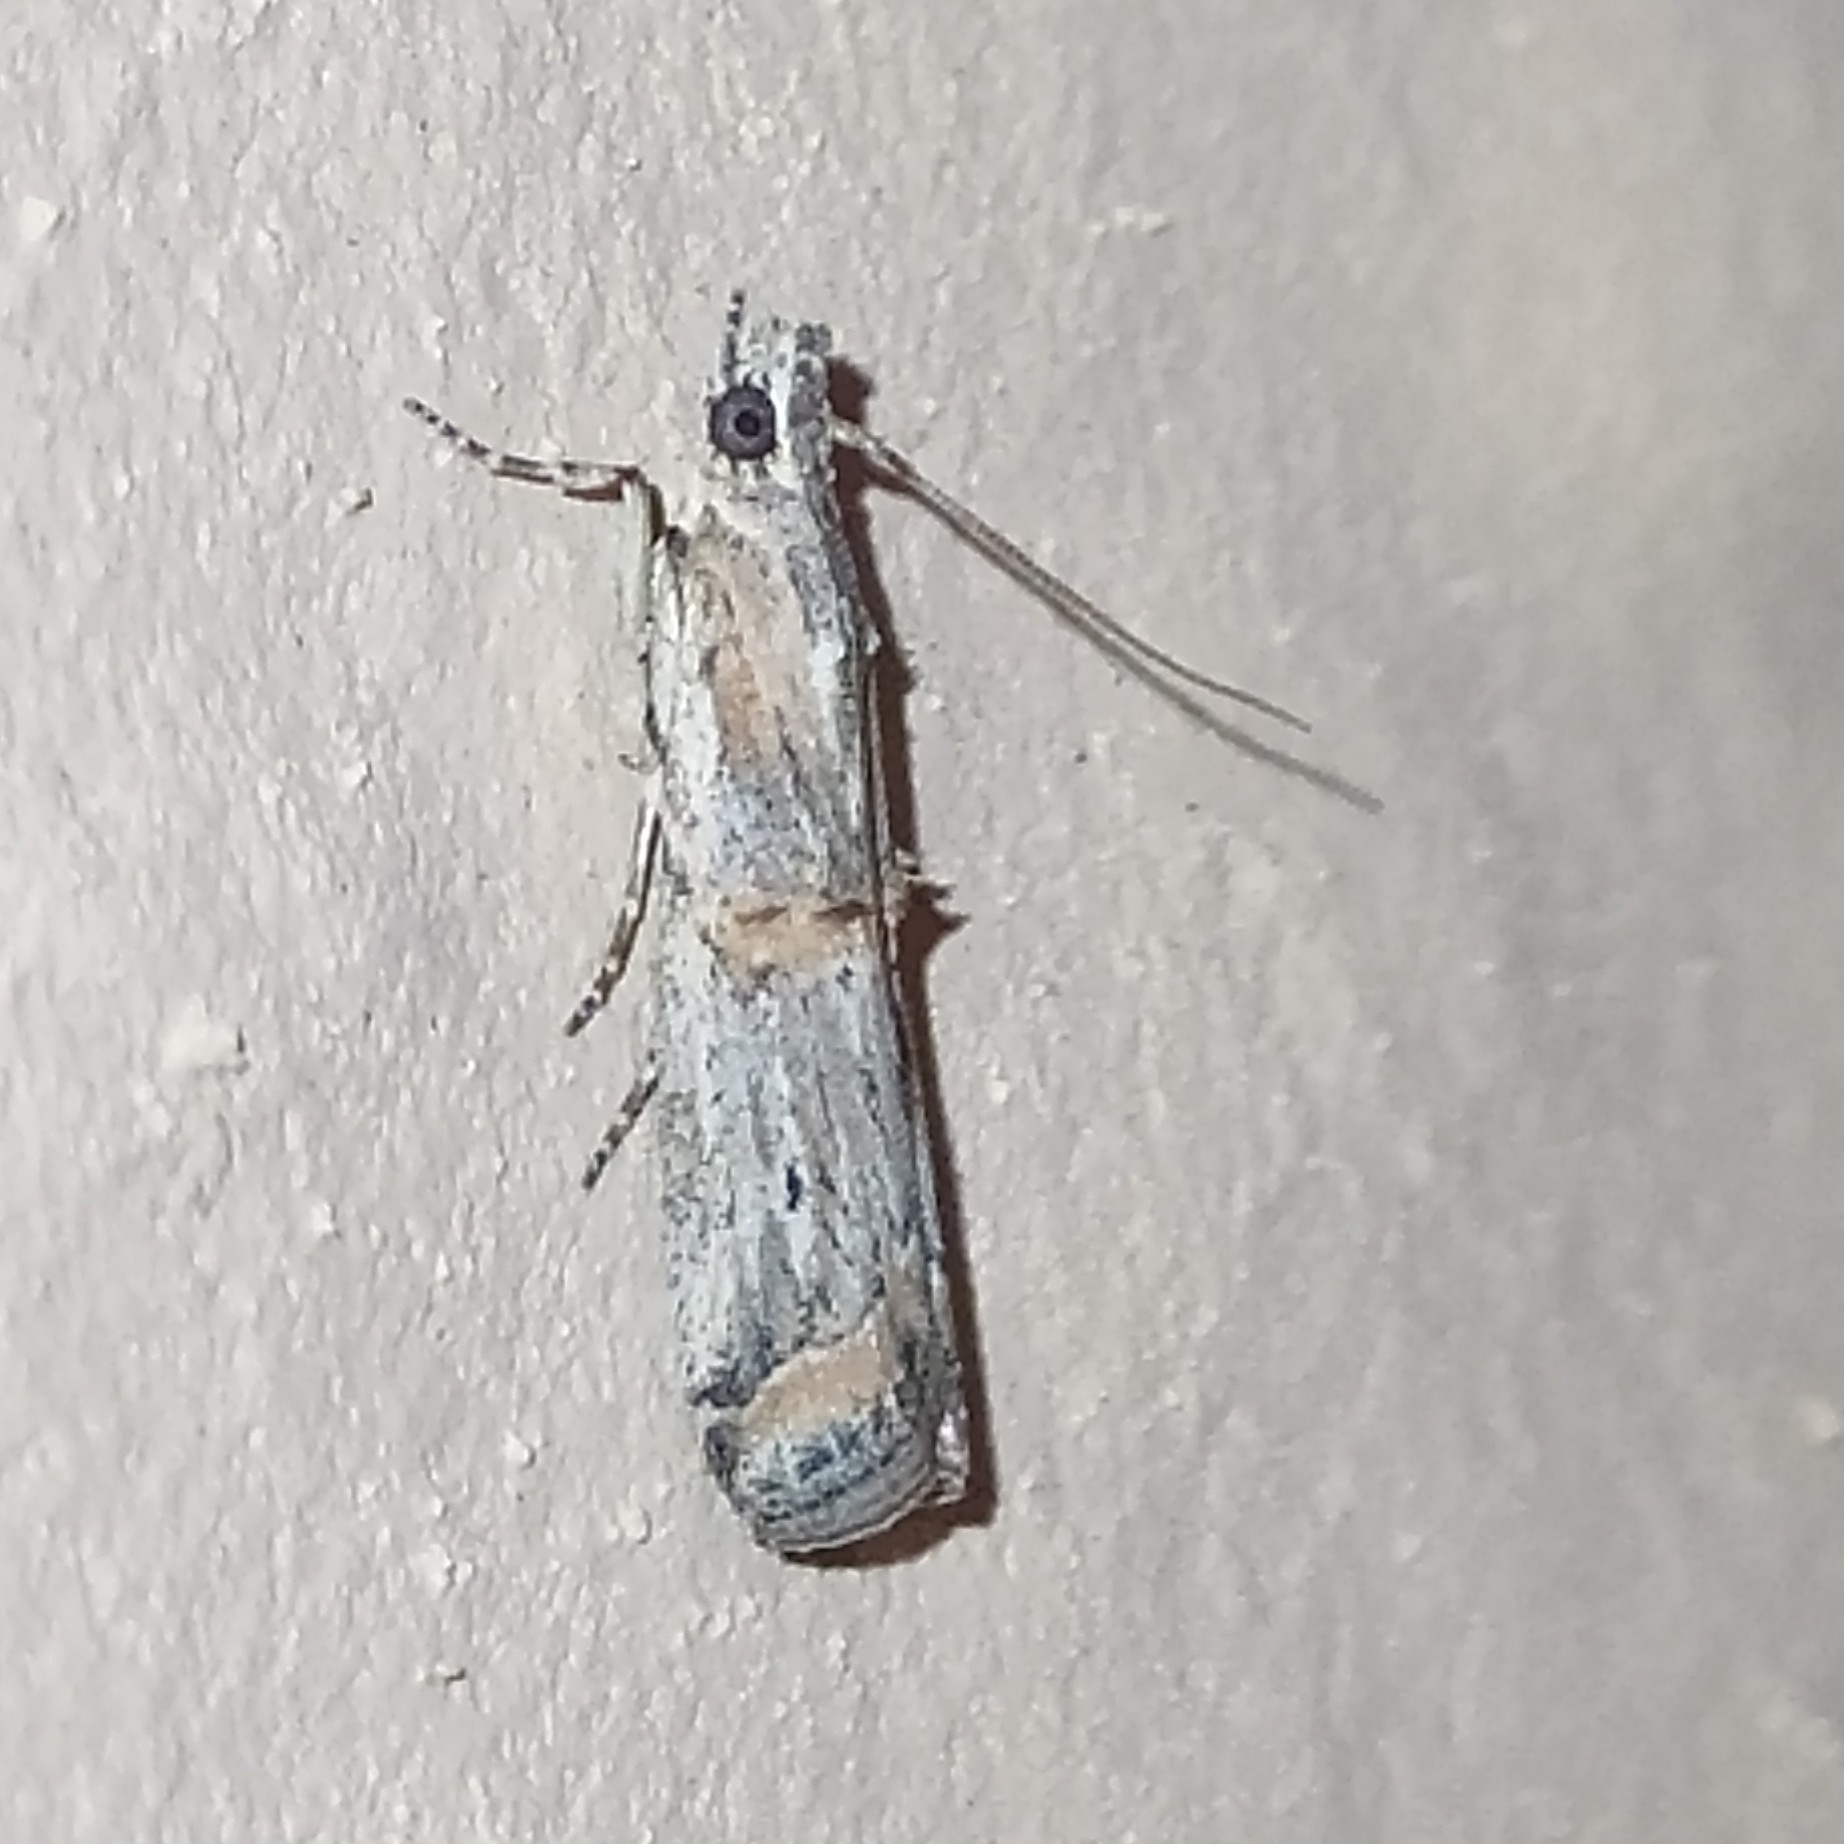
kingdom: Animalia
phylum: Arthropoda
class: Insecta
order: Lepidoptera
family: Pyralidae
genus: Psorosa
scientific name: Psorosa dahliella
